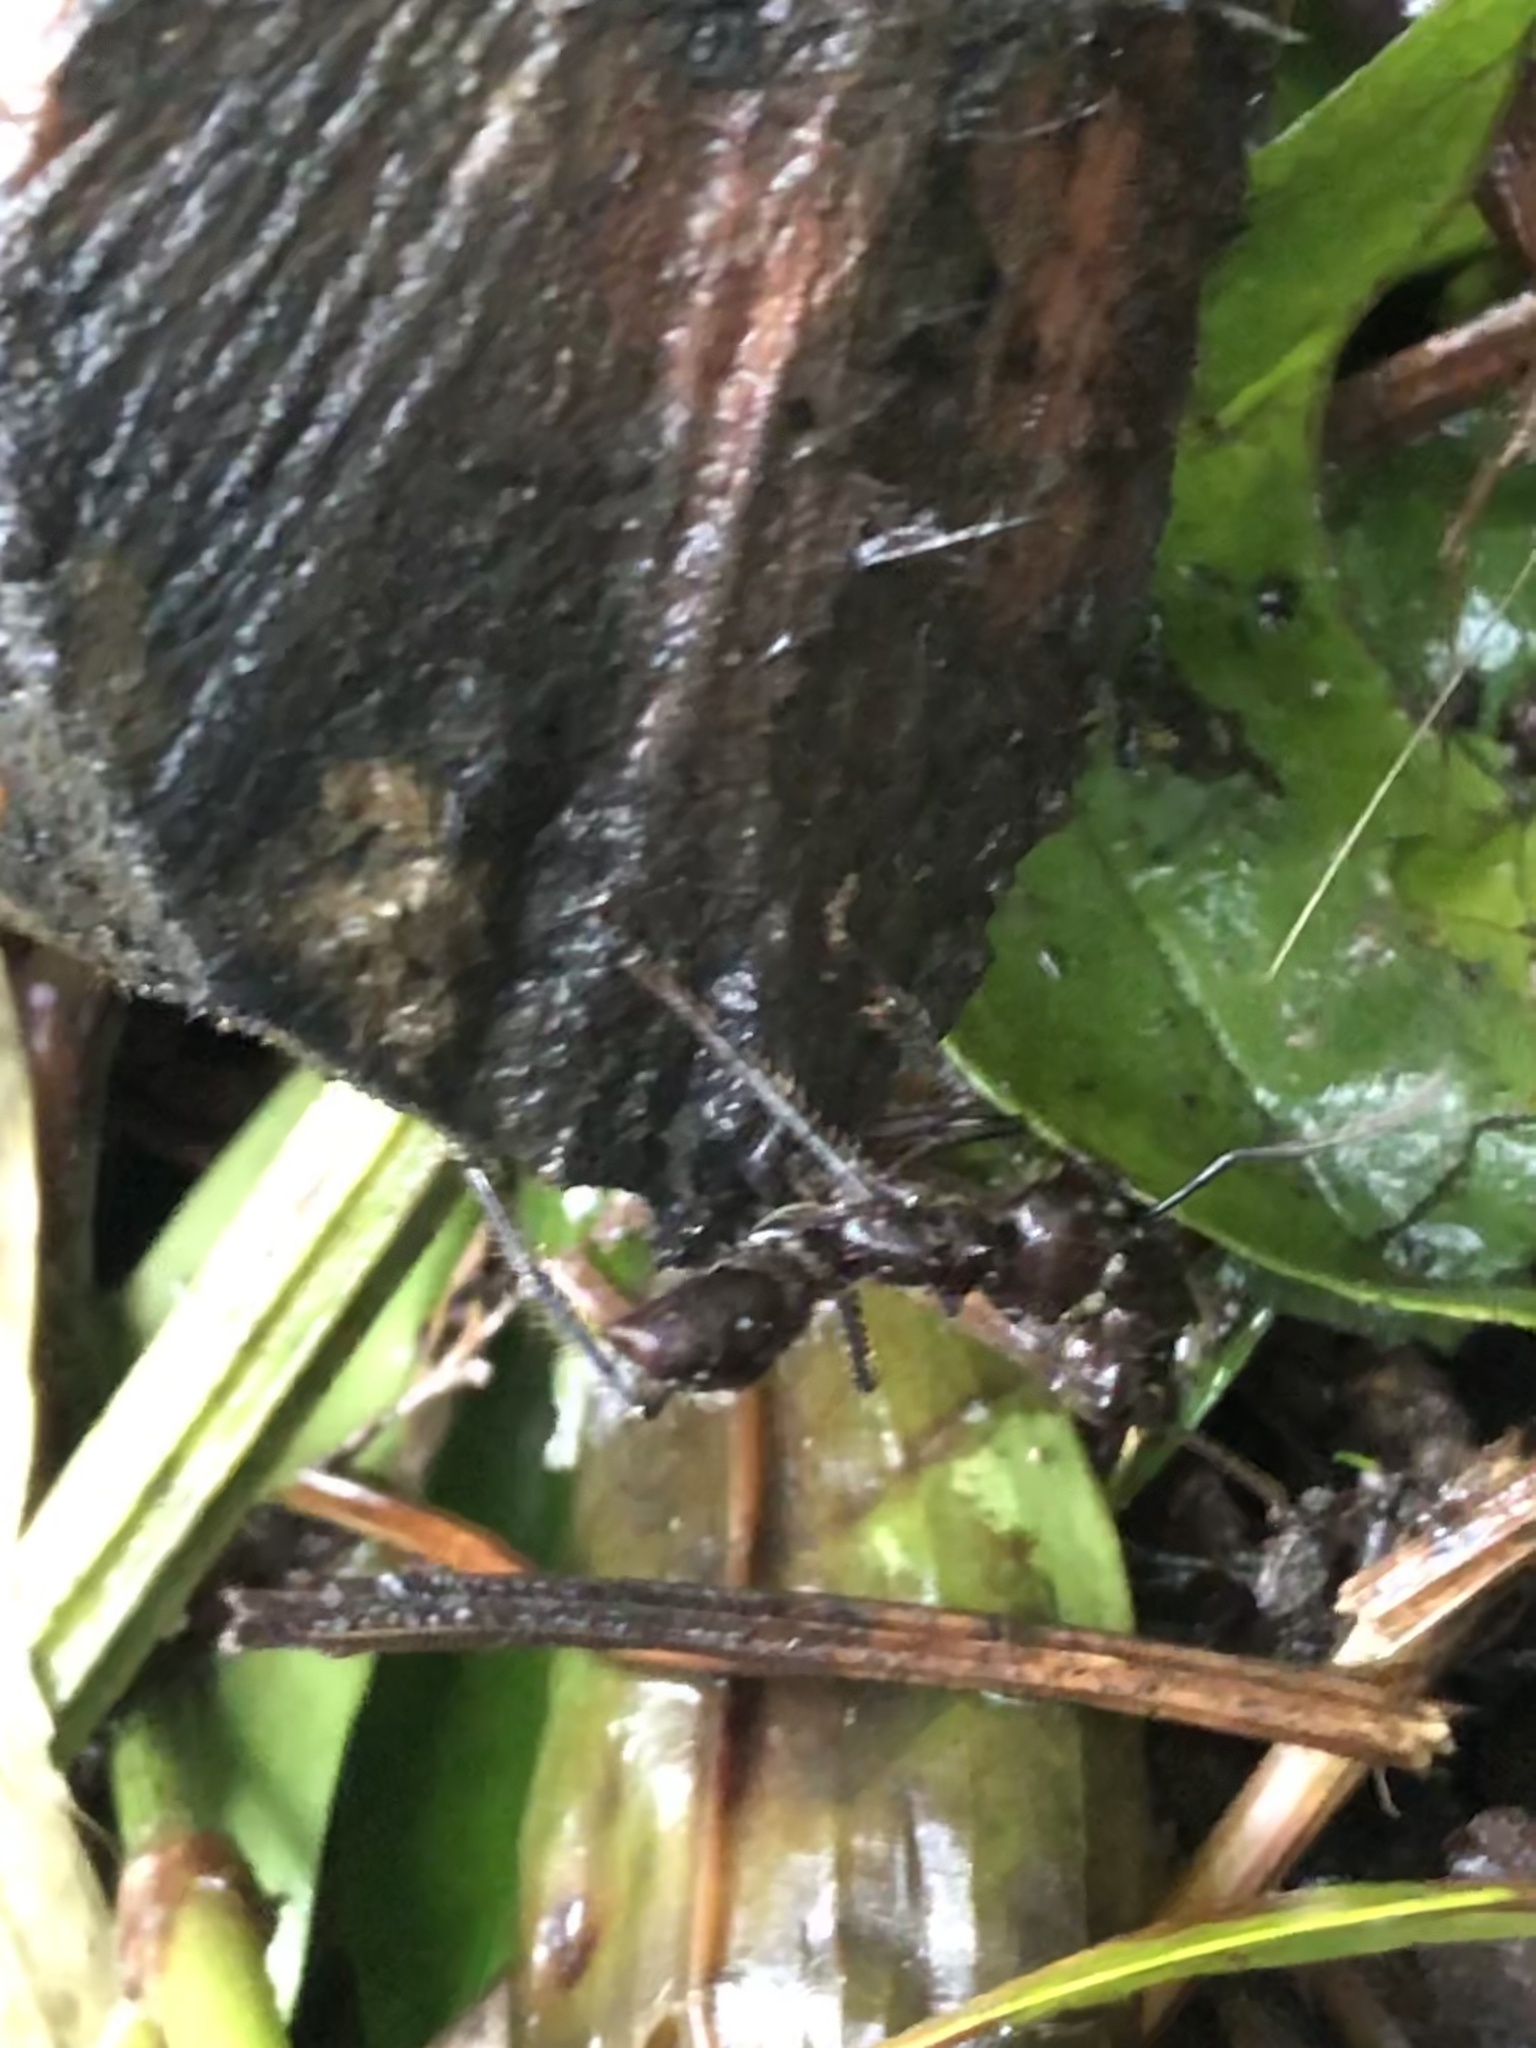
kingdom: Animalia
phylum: Arthropoda
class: Insecta
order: Hymenoptera
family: Formicidae
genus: Paraponera
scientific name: Paraponera clavata
